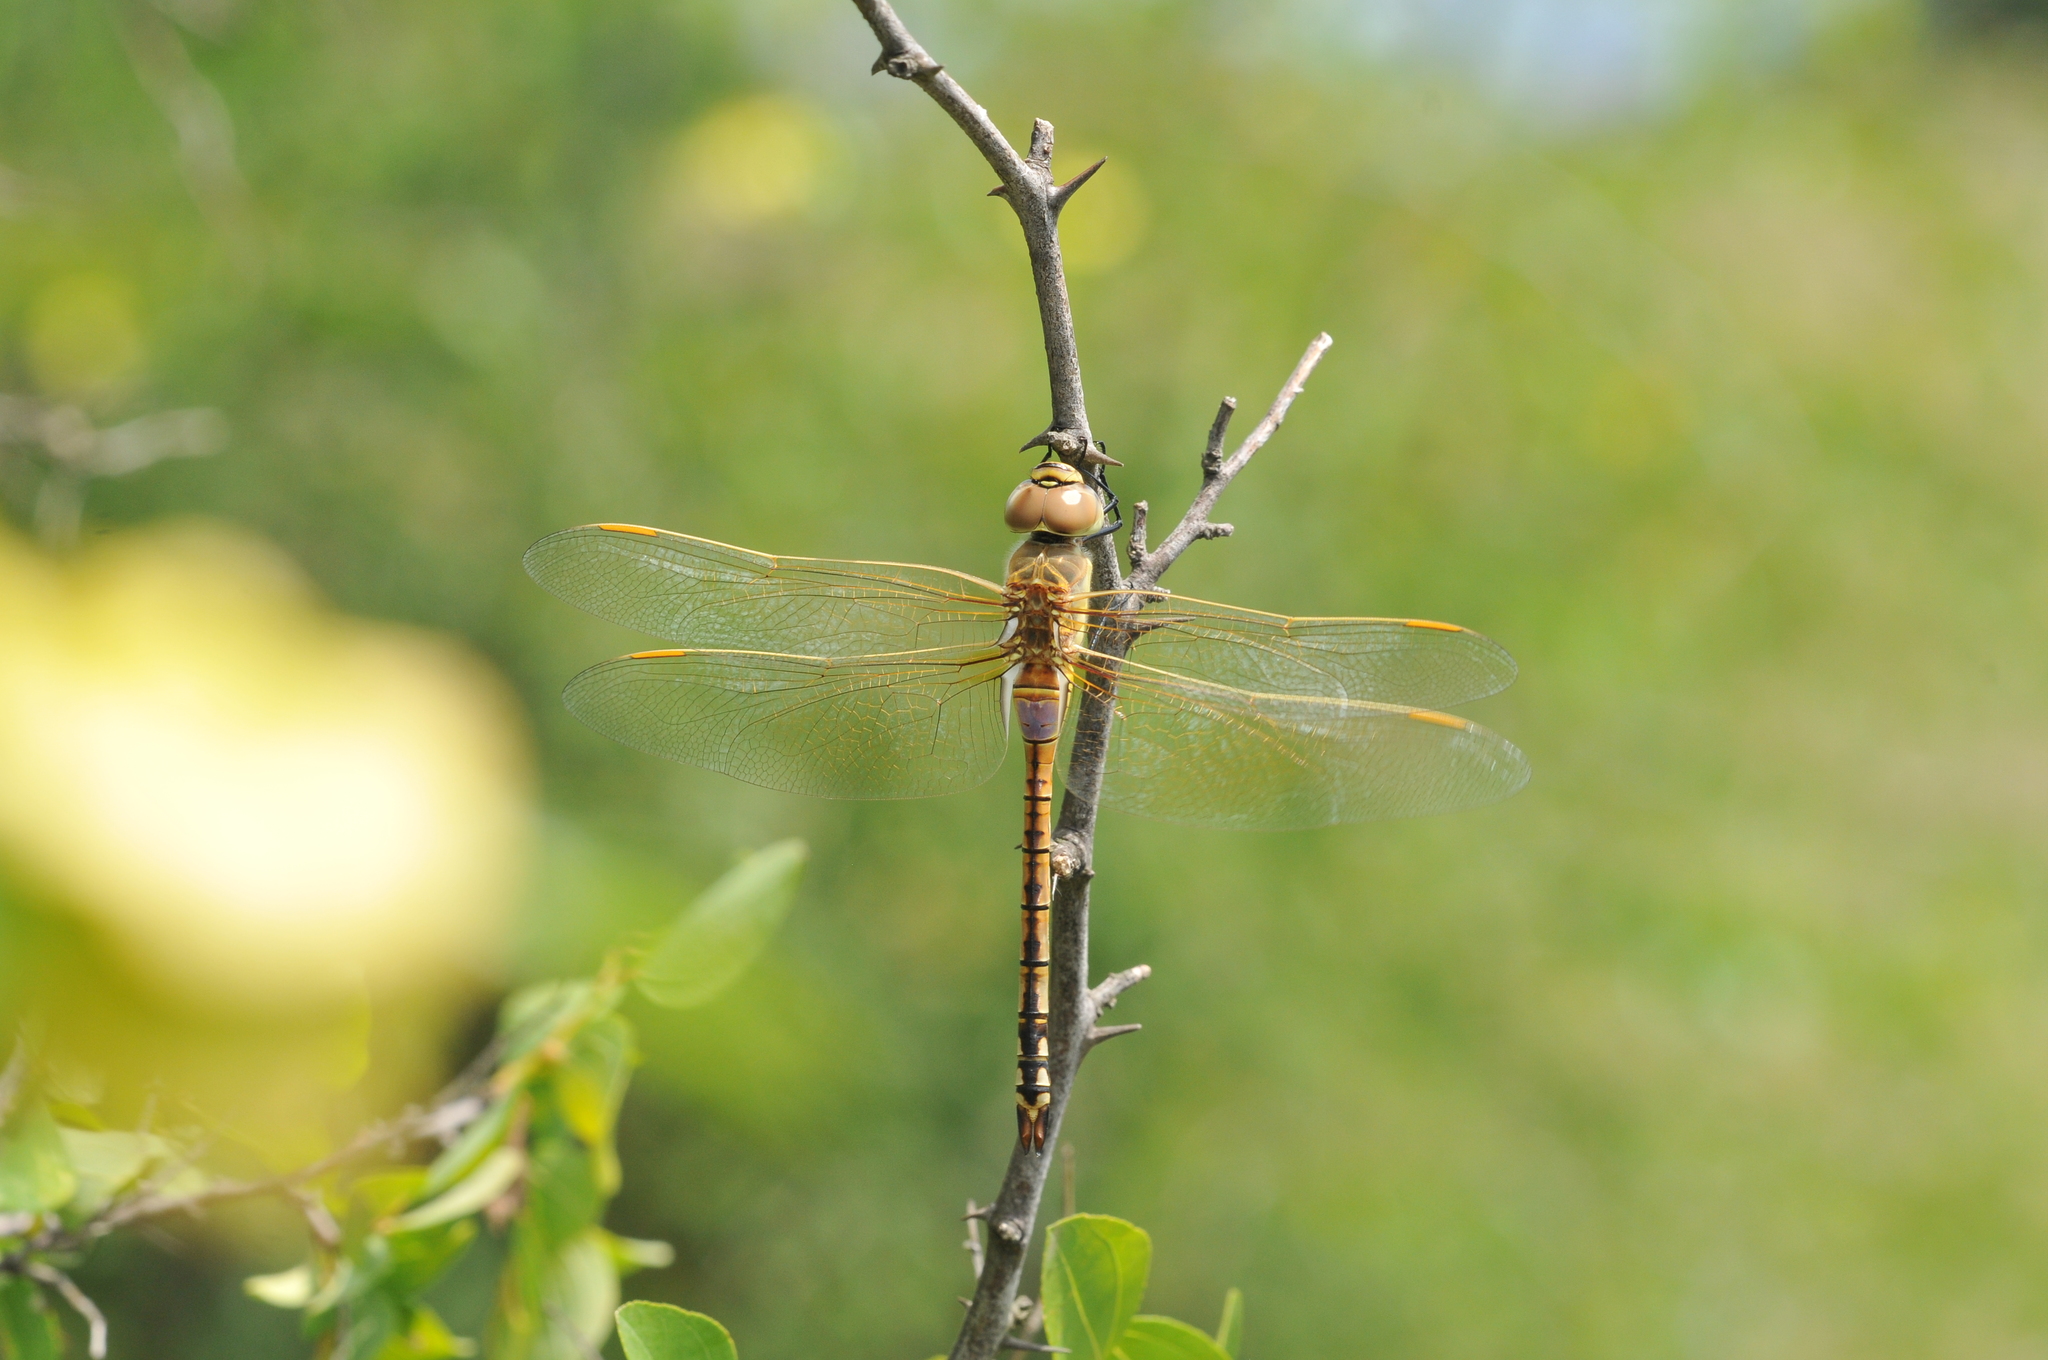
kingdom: Animalia
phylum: Arthropoda
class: Insecta
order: Odonata
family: Aeshnidae
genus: Anax
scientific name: Anax ephippiger
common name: Vagrant emperor
